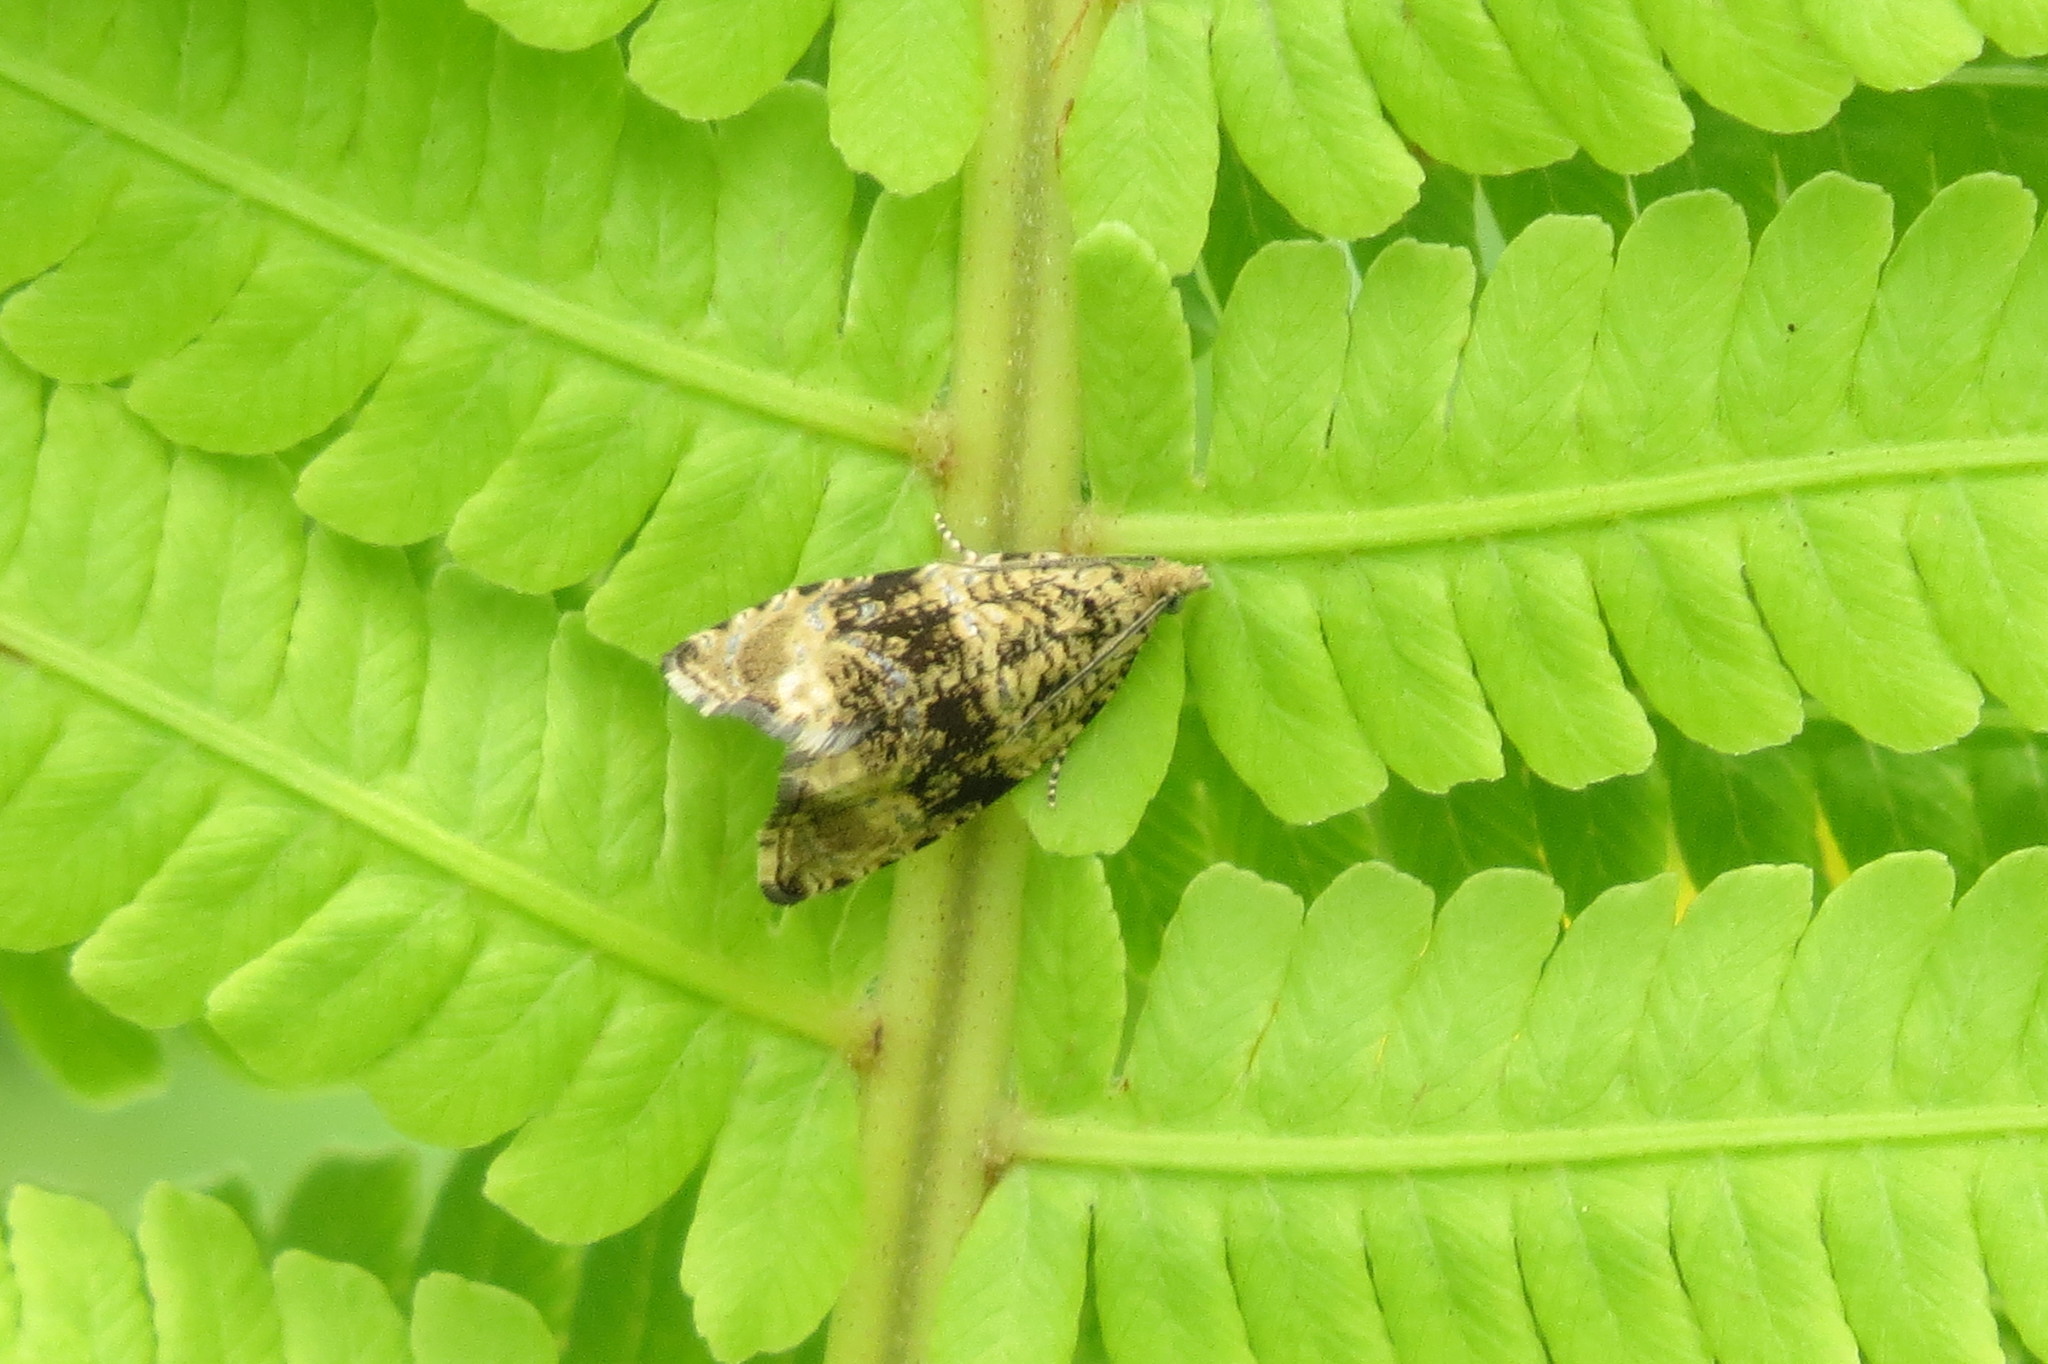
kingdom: Animalia
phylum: Arthropoda
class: Insecta
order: Lepidoptera
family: Tortricidae
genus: Syricoris
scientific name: Syricoris lacunana
